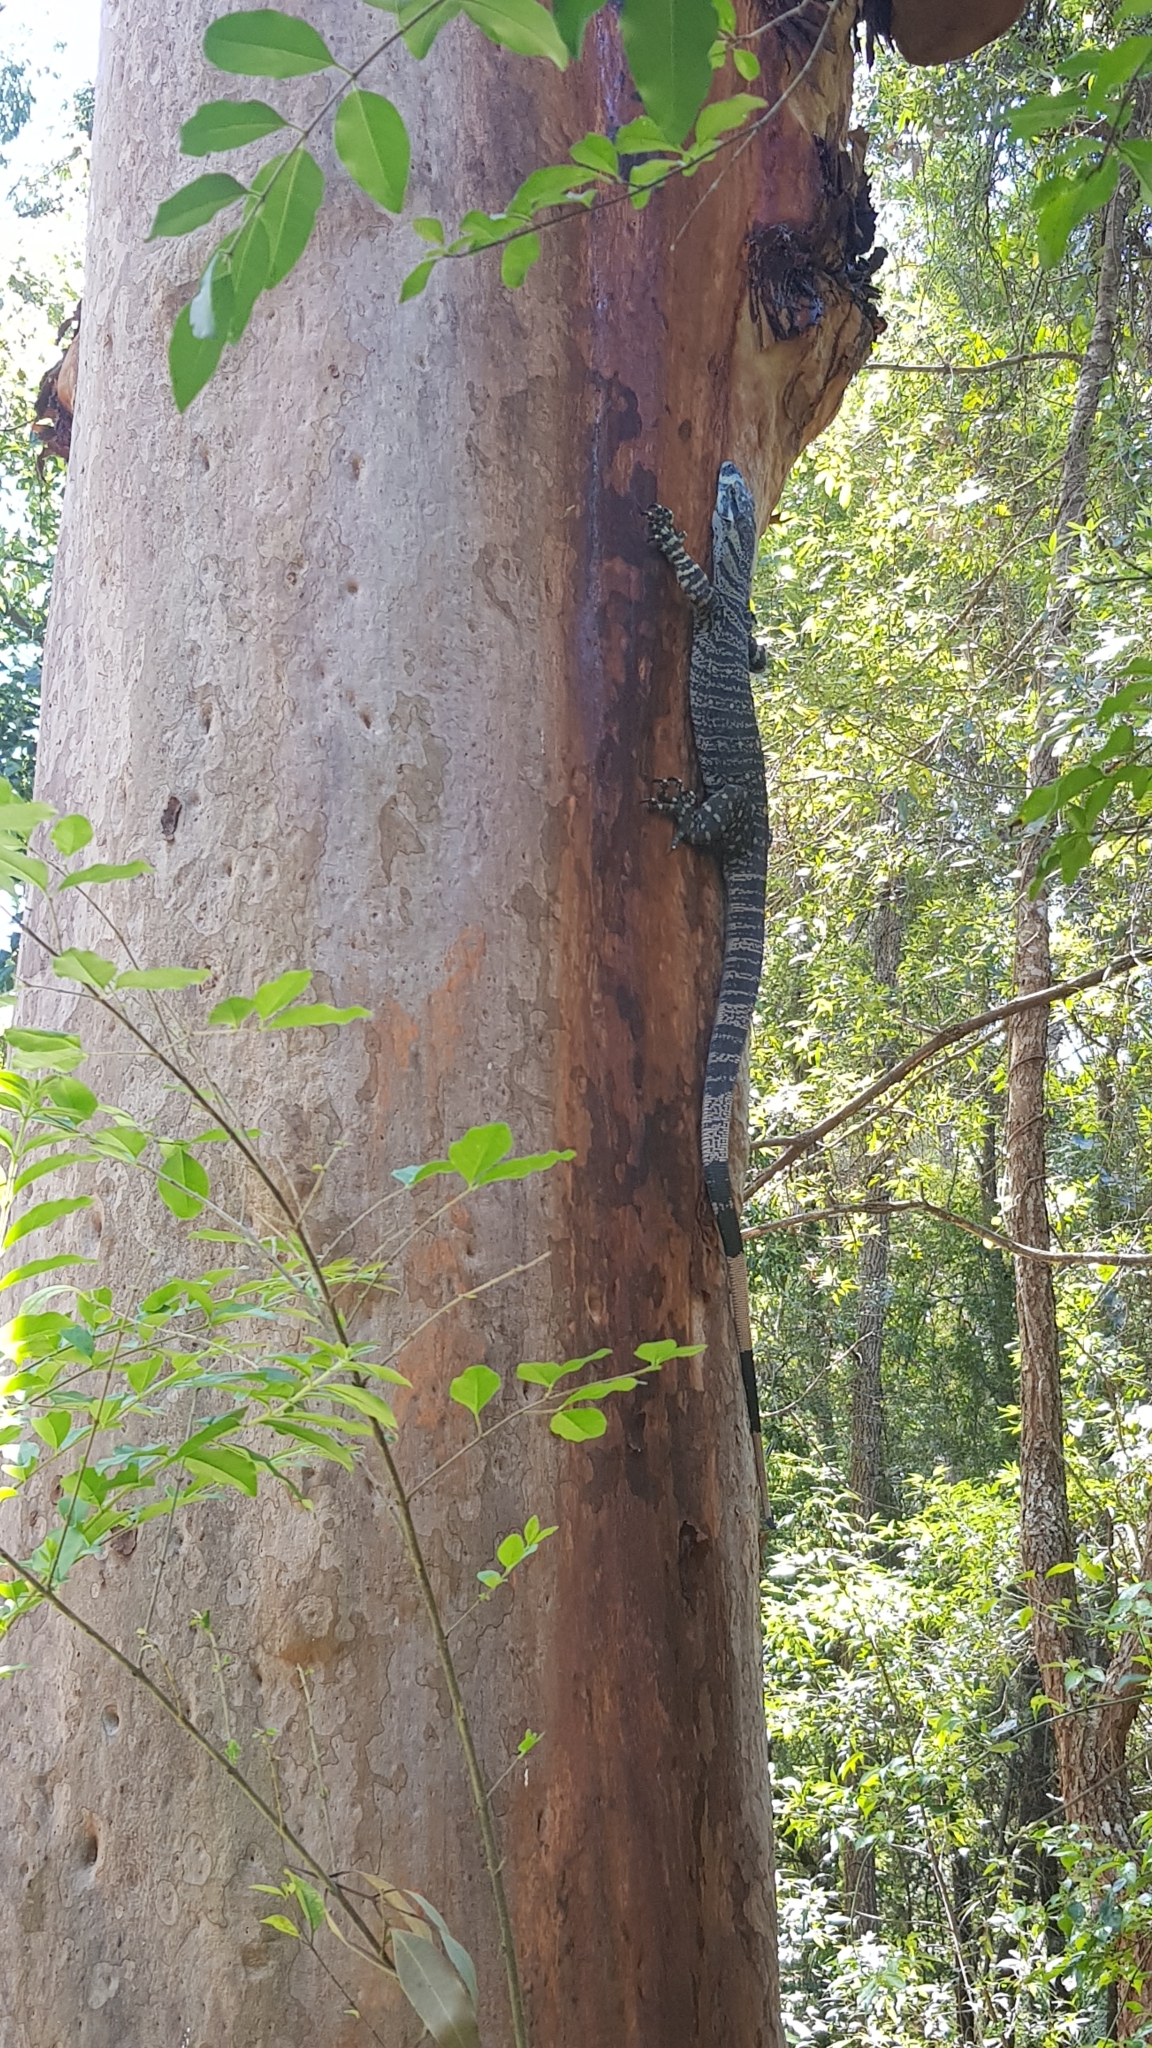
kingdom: Animalia
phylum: Chordata
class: Squamata
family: Varanidae
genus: Varanus
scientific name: Varanus varius
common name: Lace monitor
